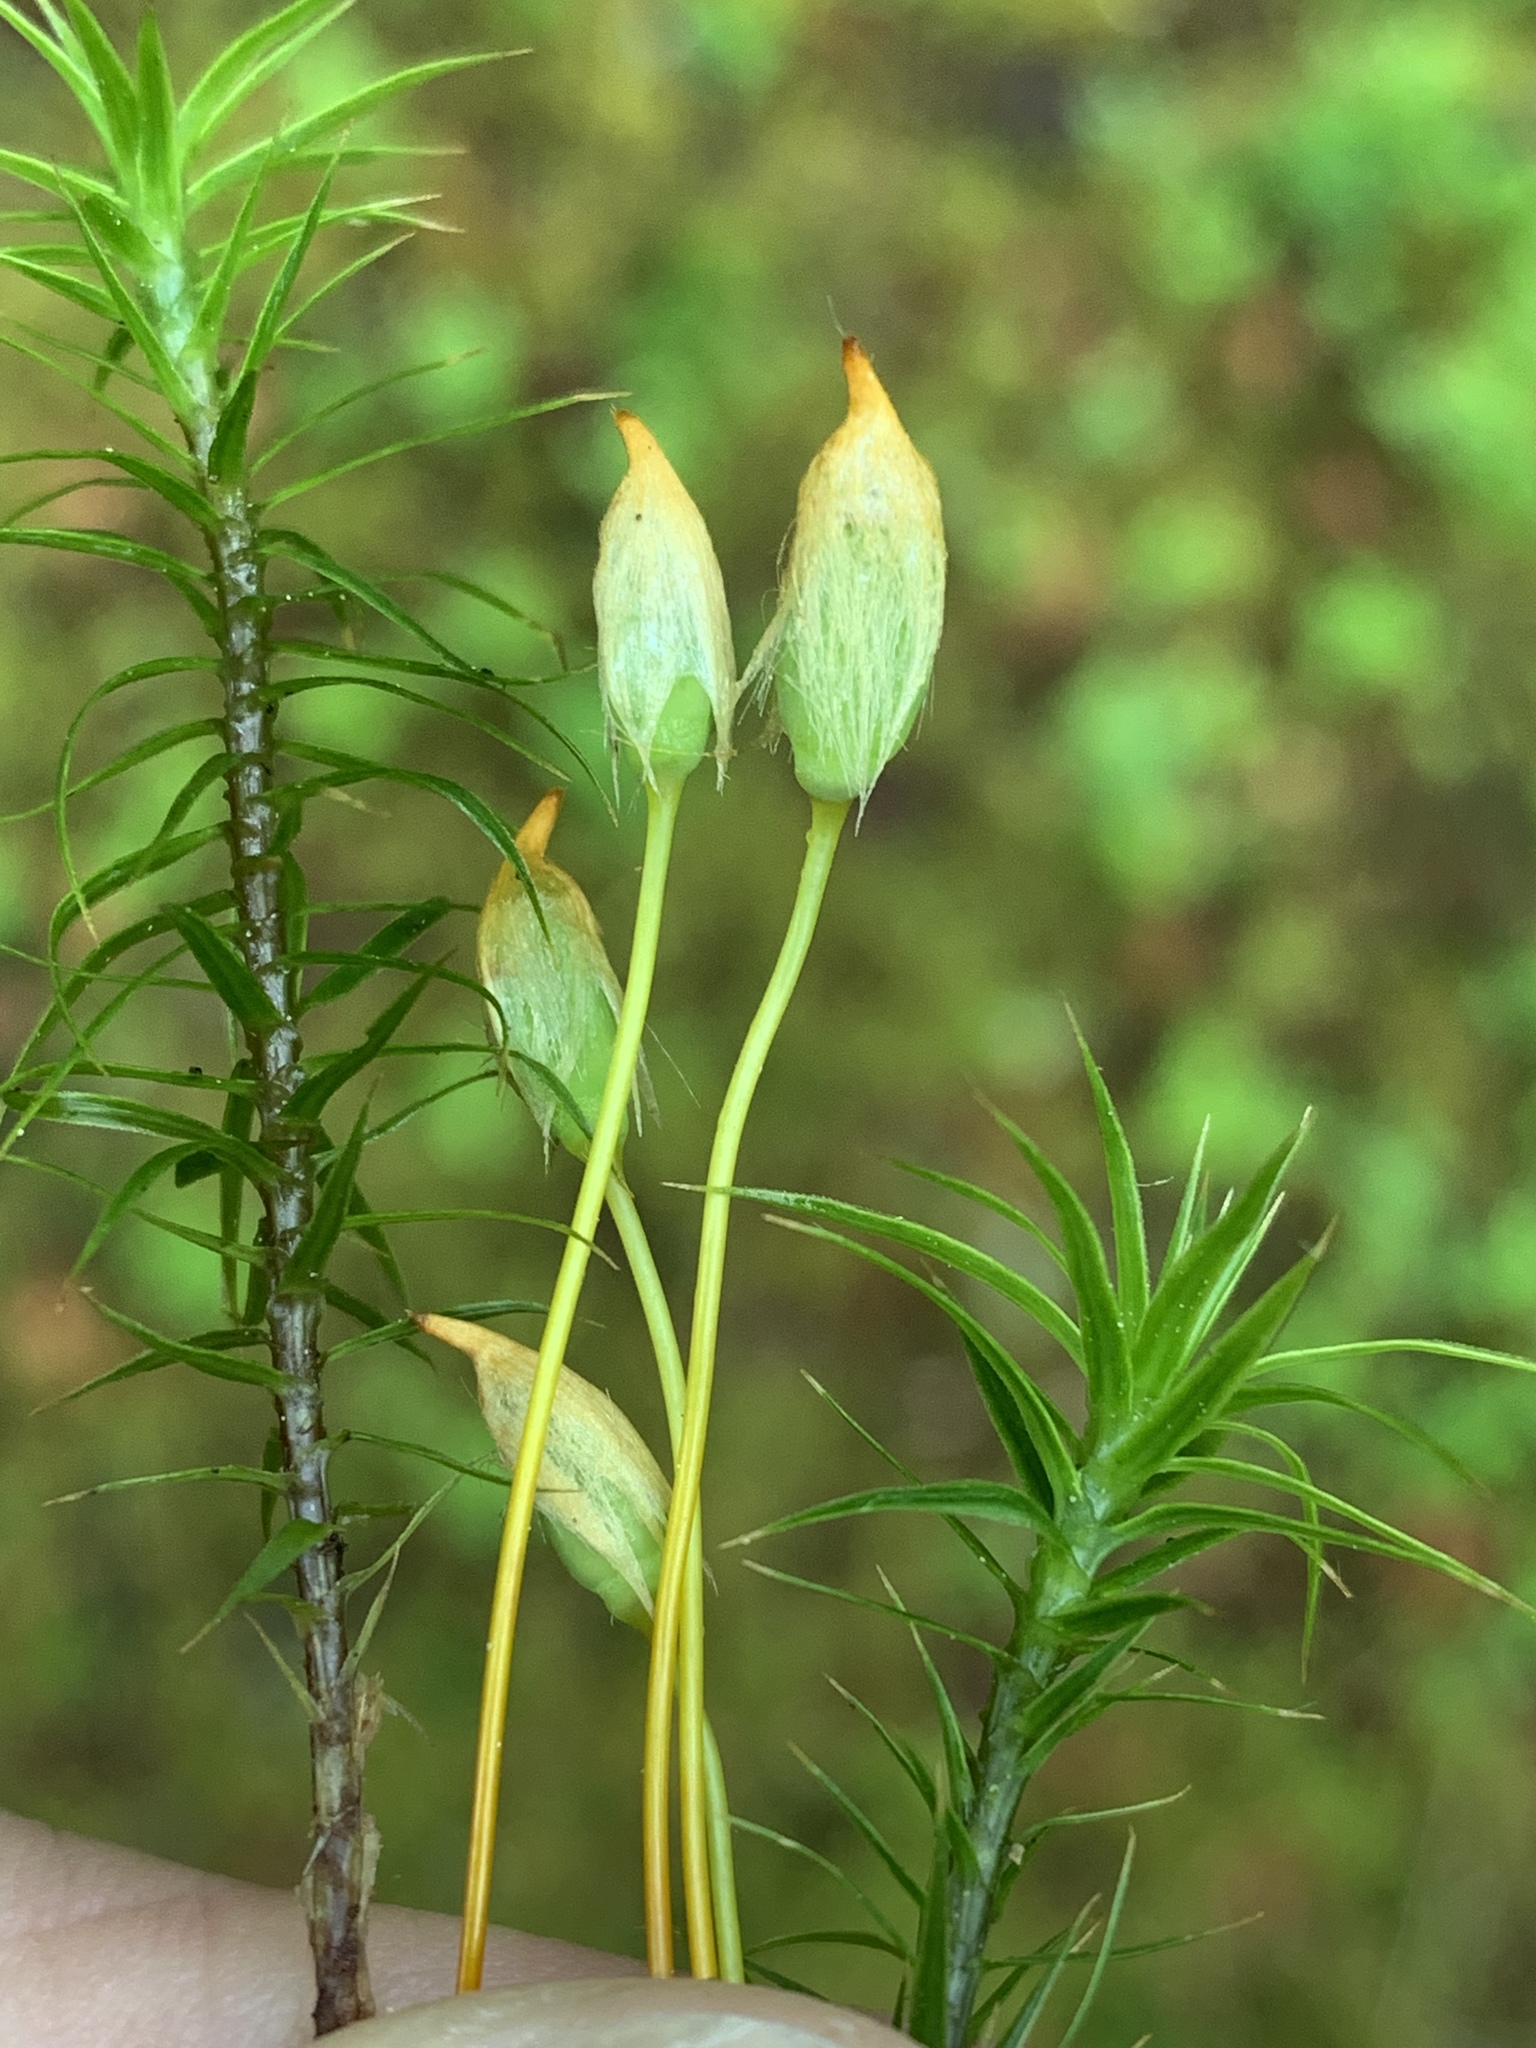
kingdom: Plantae
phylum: Bryophyta
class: Polytrichopsida
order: Polytrichales
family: Polytrichaceae
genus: Polytrichum
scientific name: Polytrichum commune
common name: Common haircap
